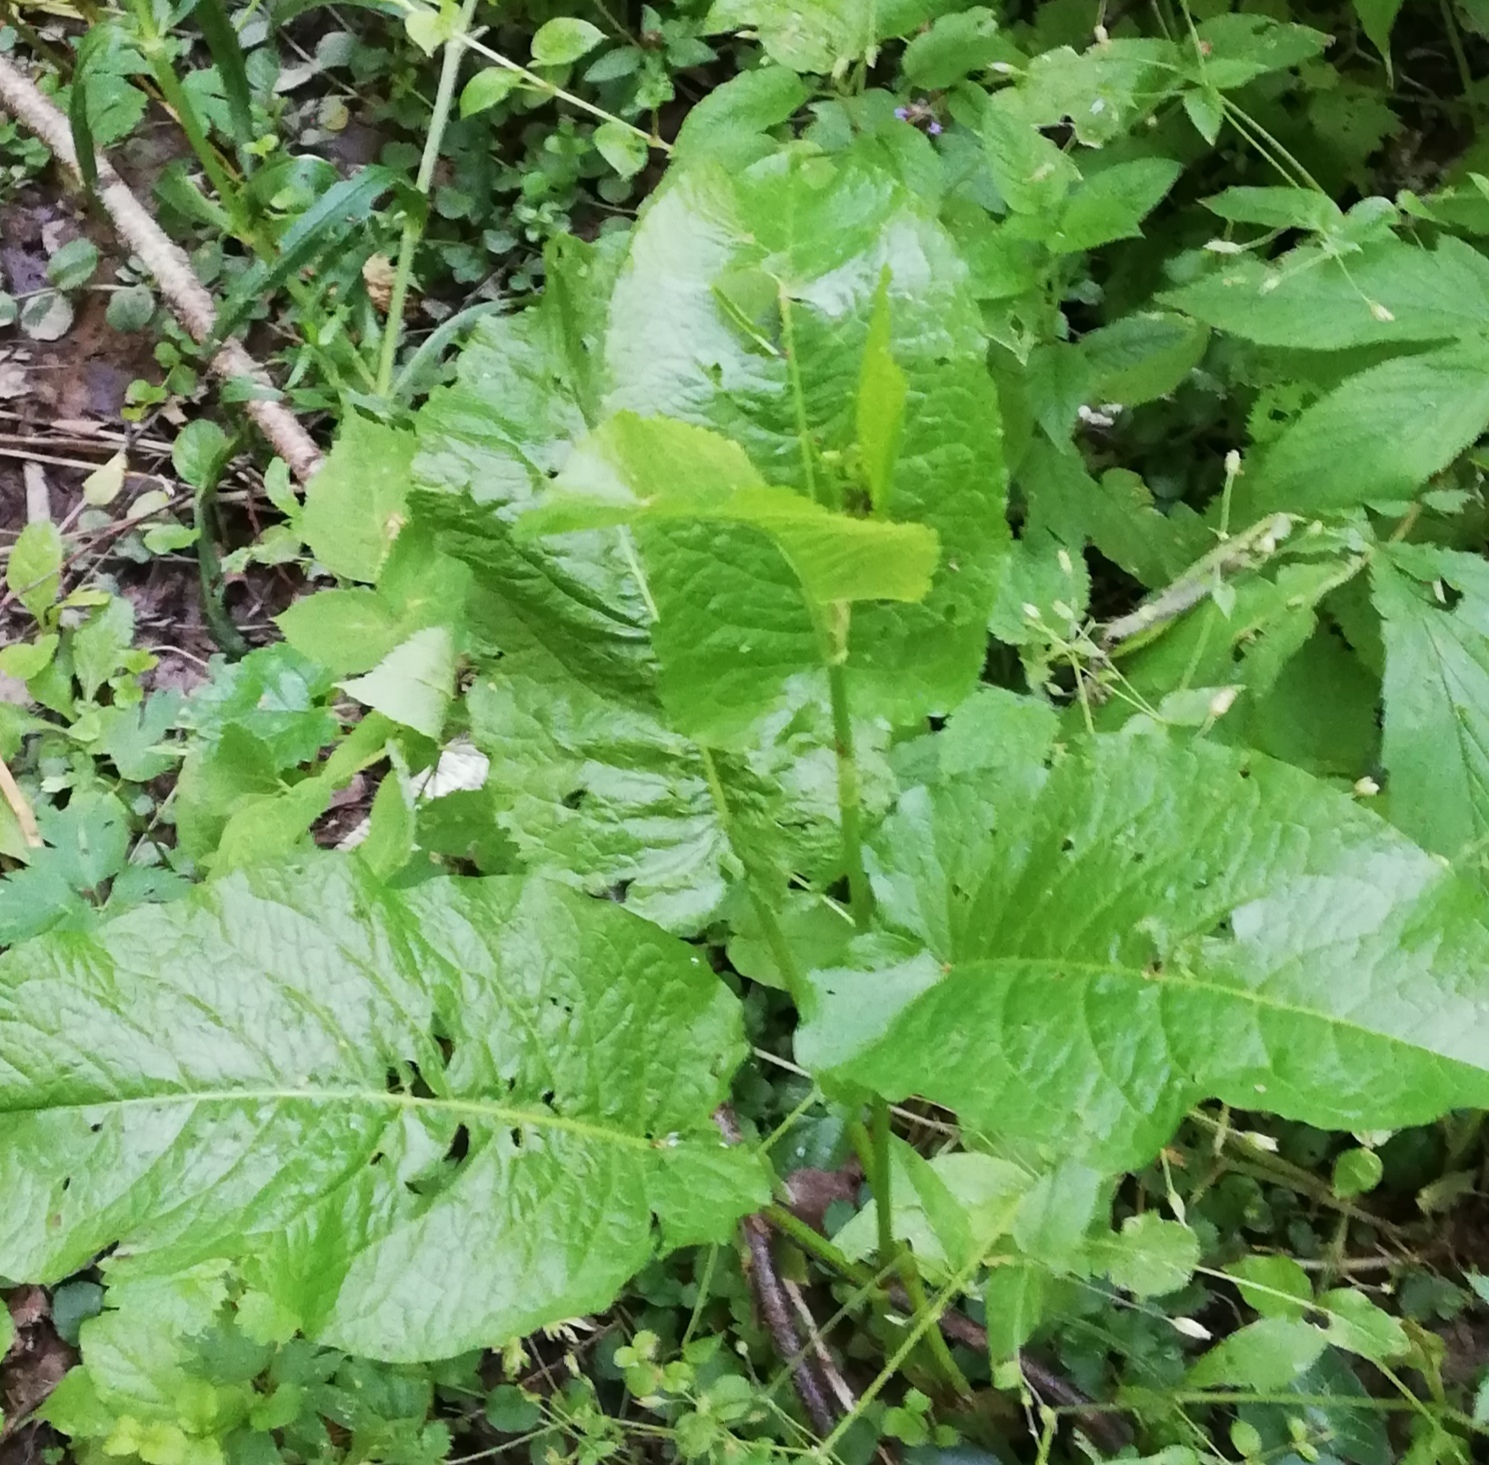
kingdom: Plantae
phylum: Tracheophyta
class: Magnoliopsida
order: Caryophyllales
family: Polygonaceae
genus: Rumex
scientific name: Rumex obtusifolius
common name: Bitter dock
